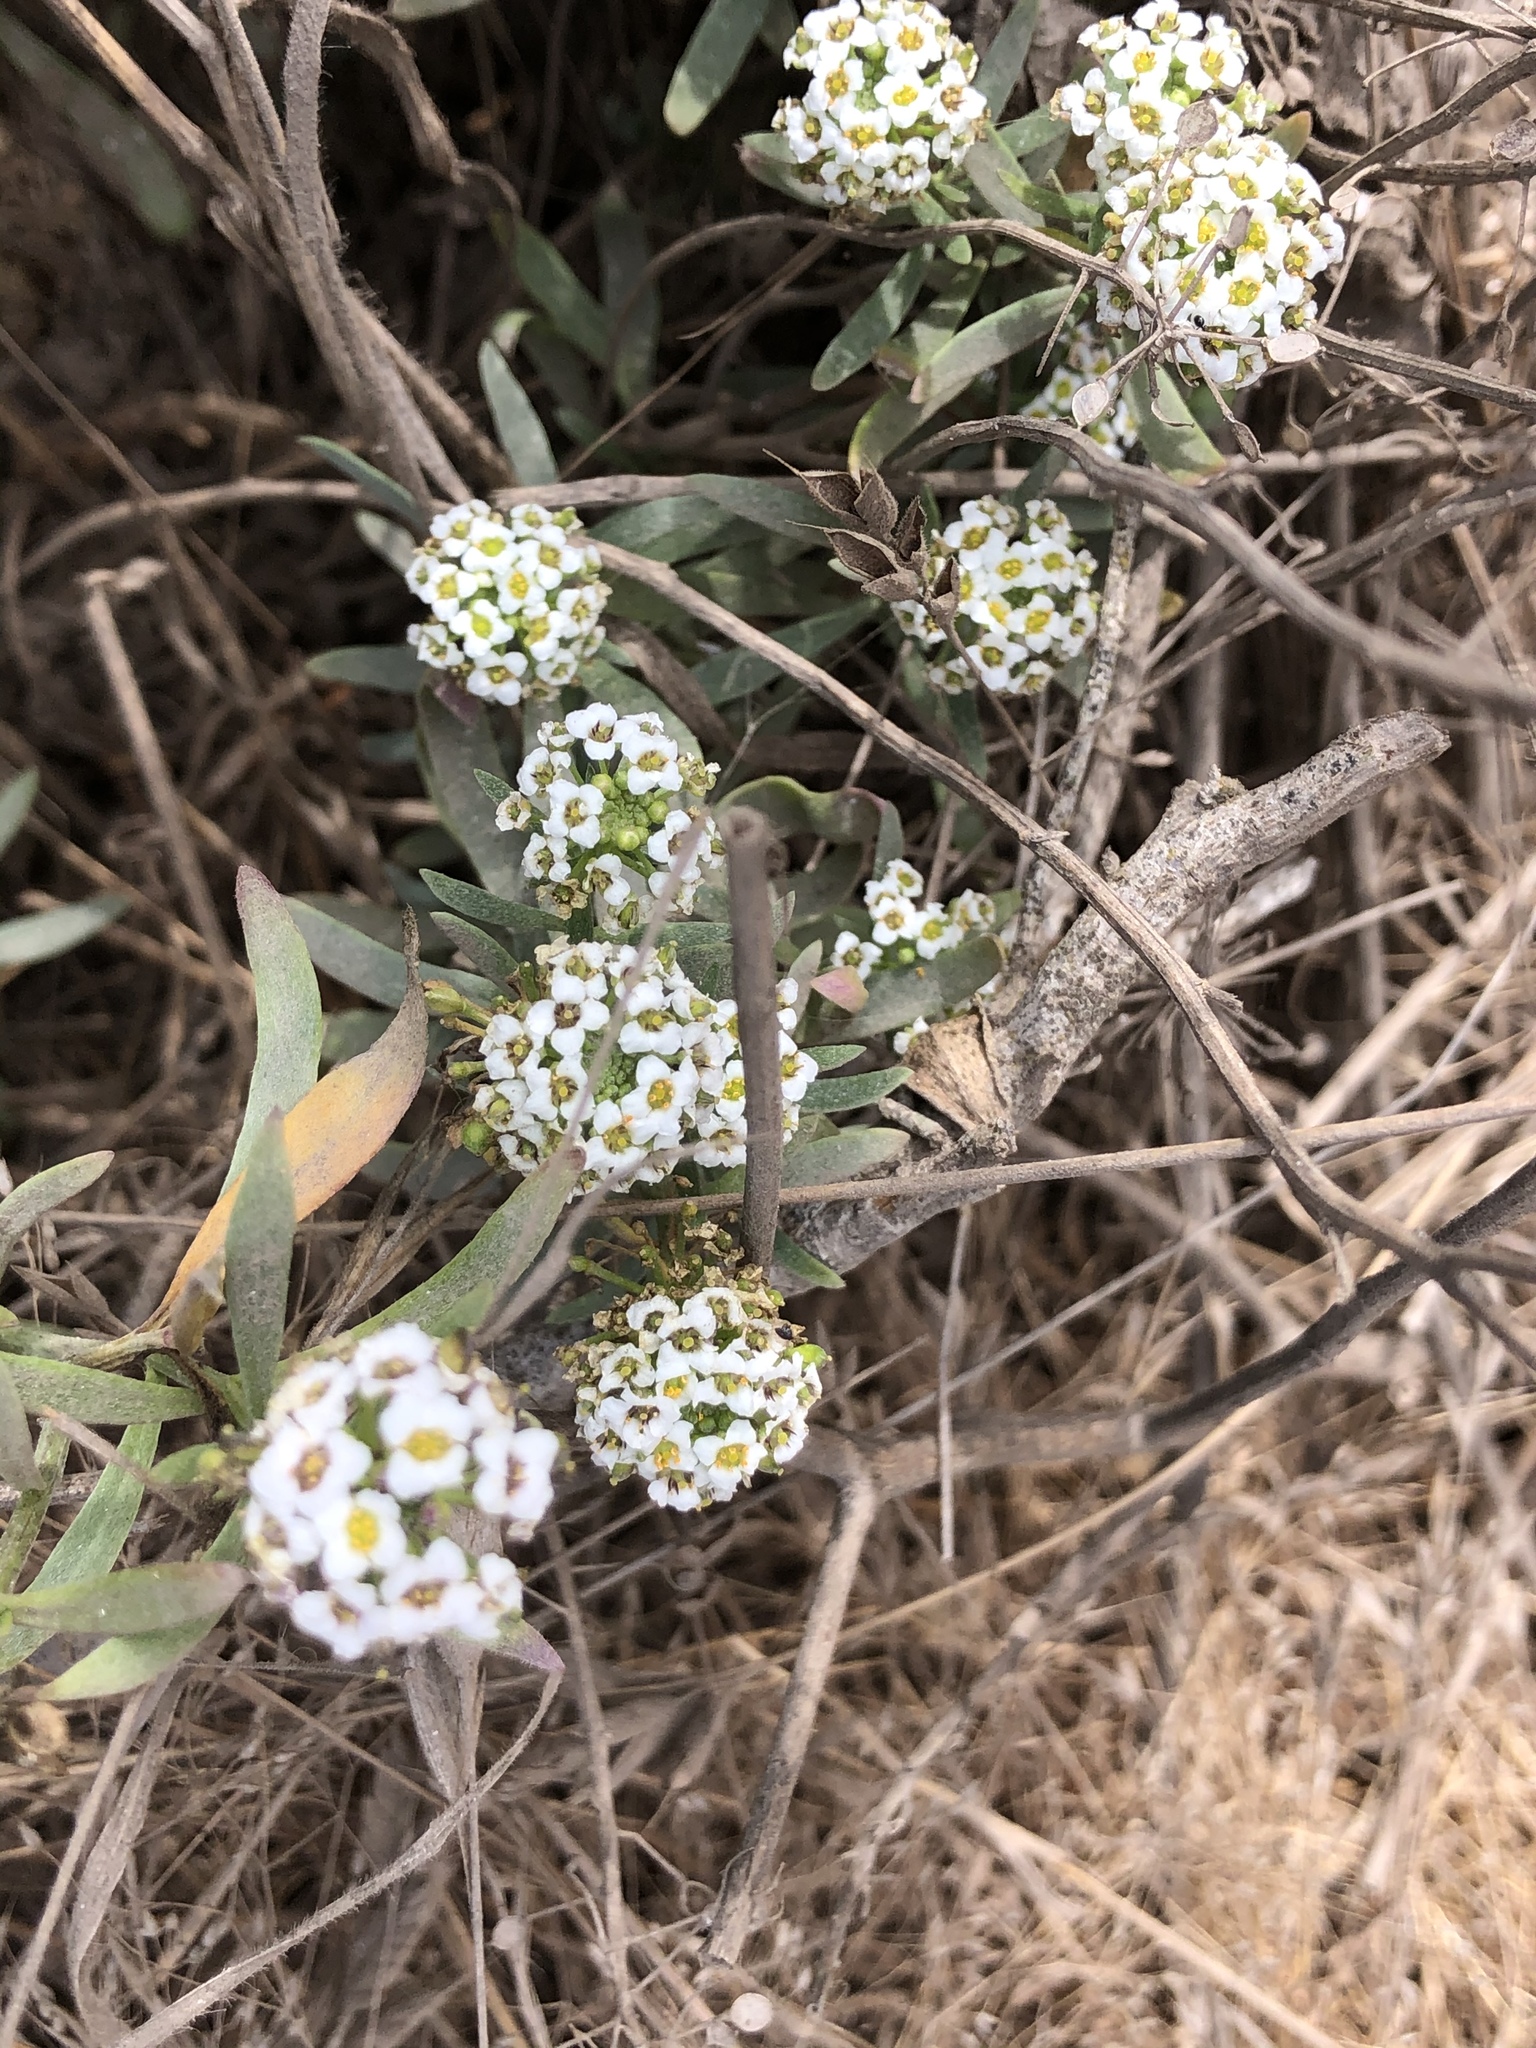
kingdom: Plantae
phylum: Tracheophyta
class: Magnoliopsida
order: Brassicales
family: Brassicaceae
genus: Lobularia
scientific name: Lobularia maritima
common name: Sweet alison
